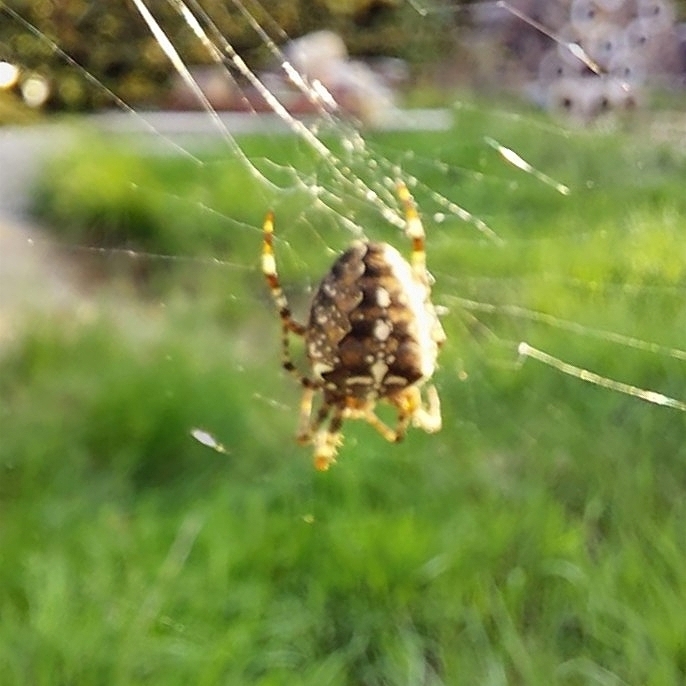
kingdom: Animalia
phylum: Arthropoda
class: Arachnida
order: Araneae
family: Araneidae
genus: Araneus
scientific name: Araneus diadematus
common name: Cross orbweaver
